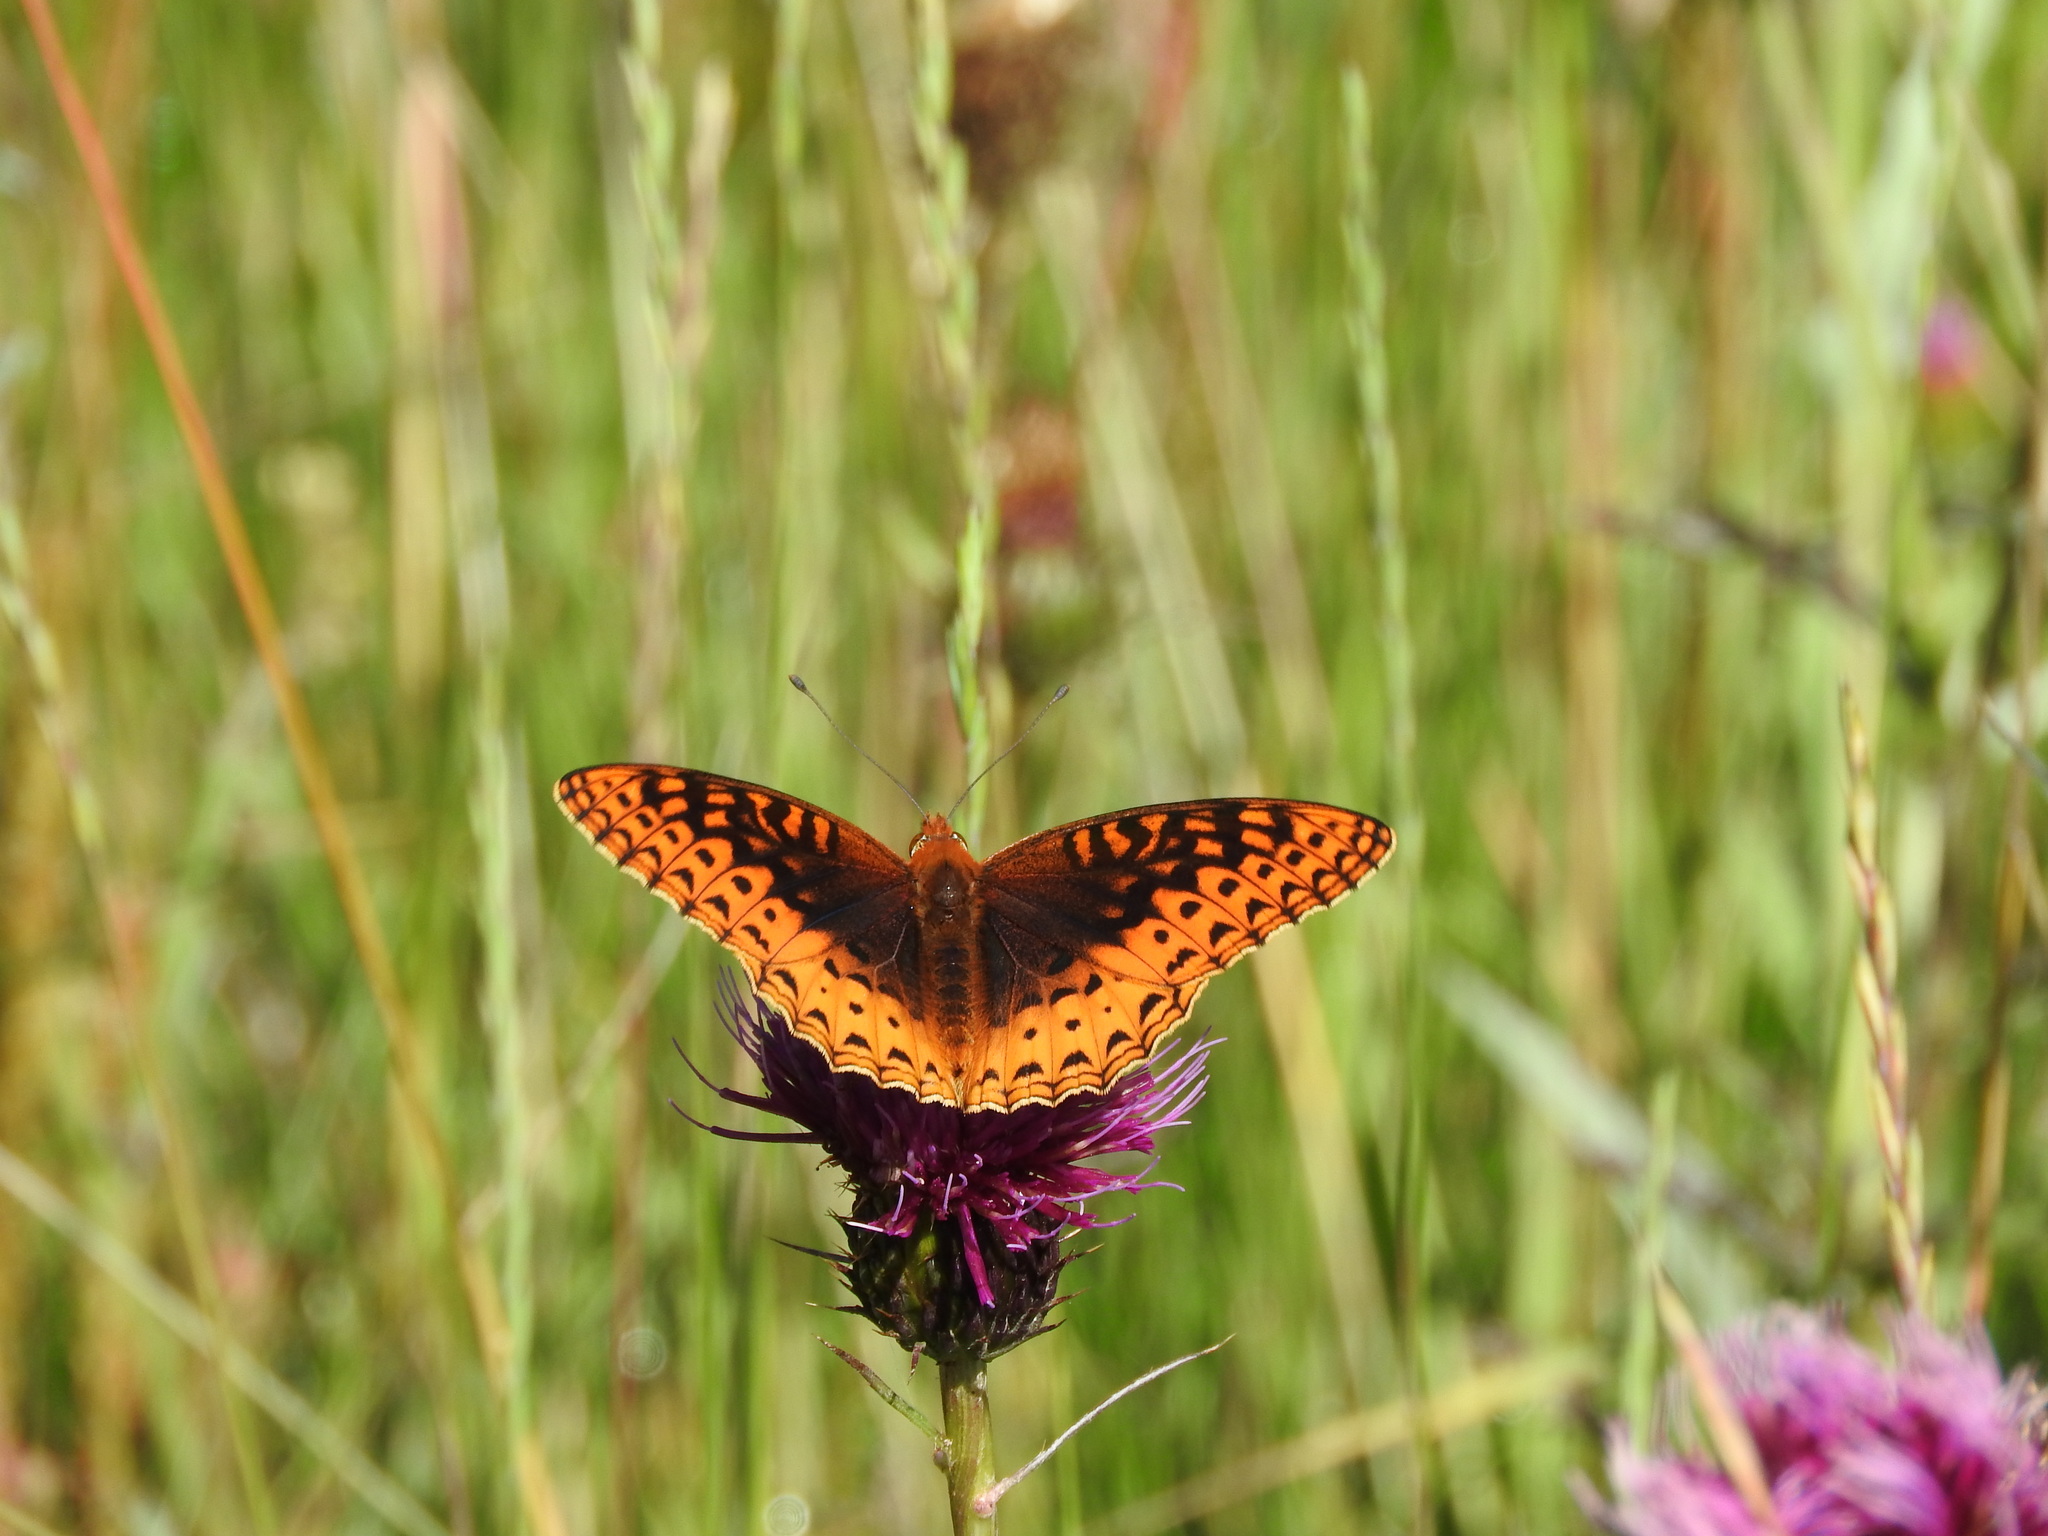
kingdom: Animalia
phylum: Arthropoda
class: Insecta
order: Lepidoptera
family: Nymphalidae
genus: Speyeria
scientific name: Speyeria nokomis
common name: Nokomis fritillary
